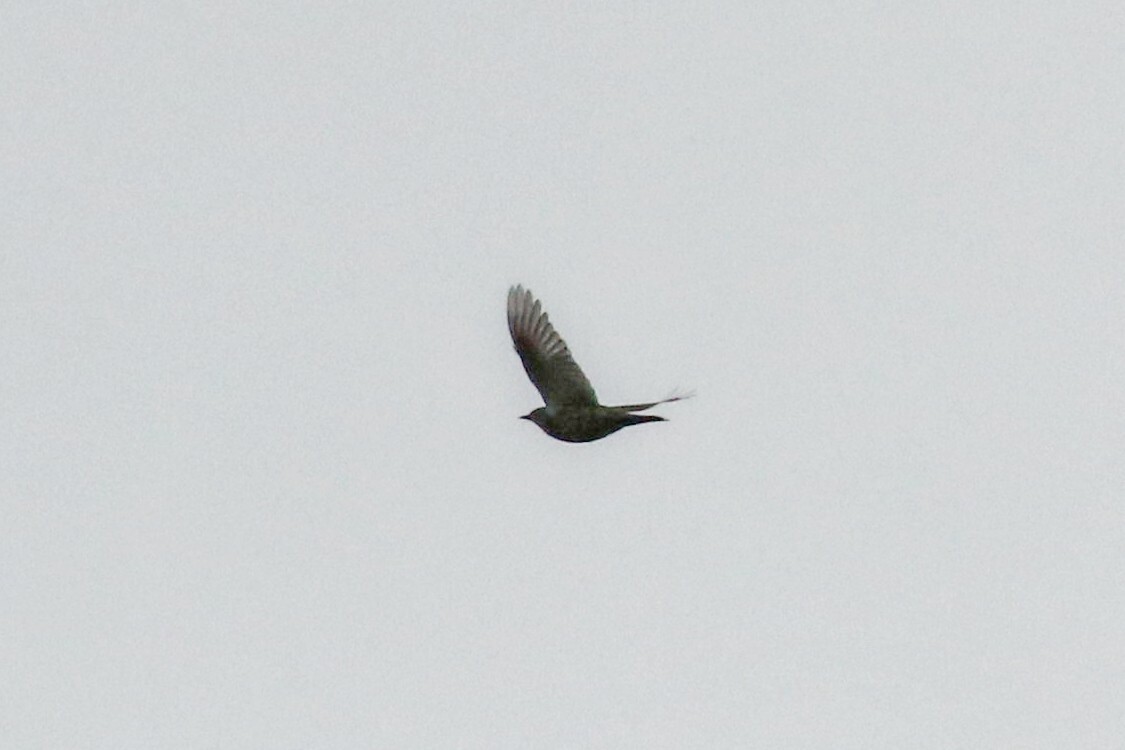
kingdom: Animalia
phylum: Chordata
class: Aves
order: Passeriformes
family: Turdidae
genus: Turdus
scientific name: Turdus viscivorus
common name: Mistle thrush
